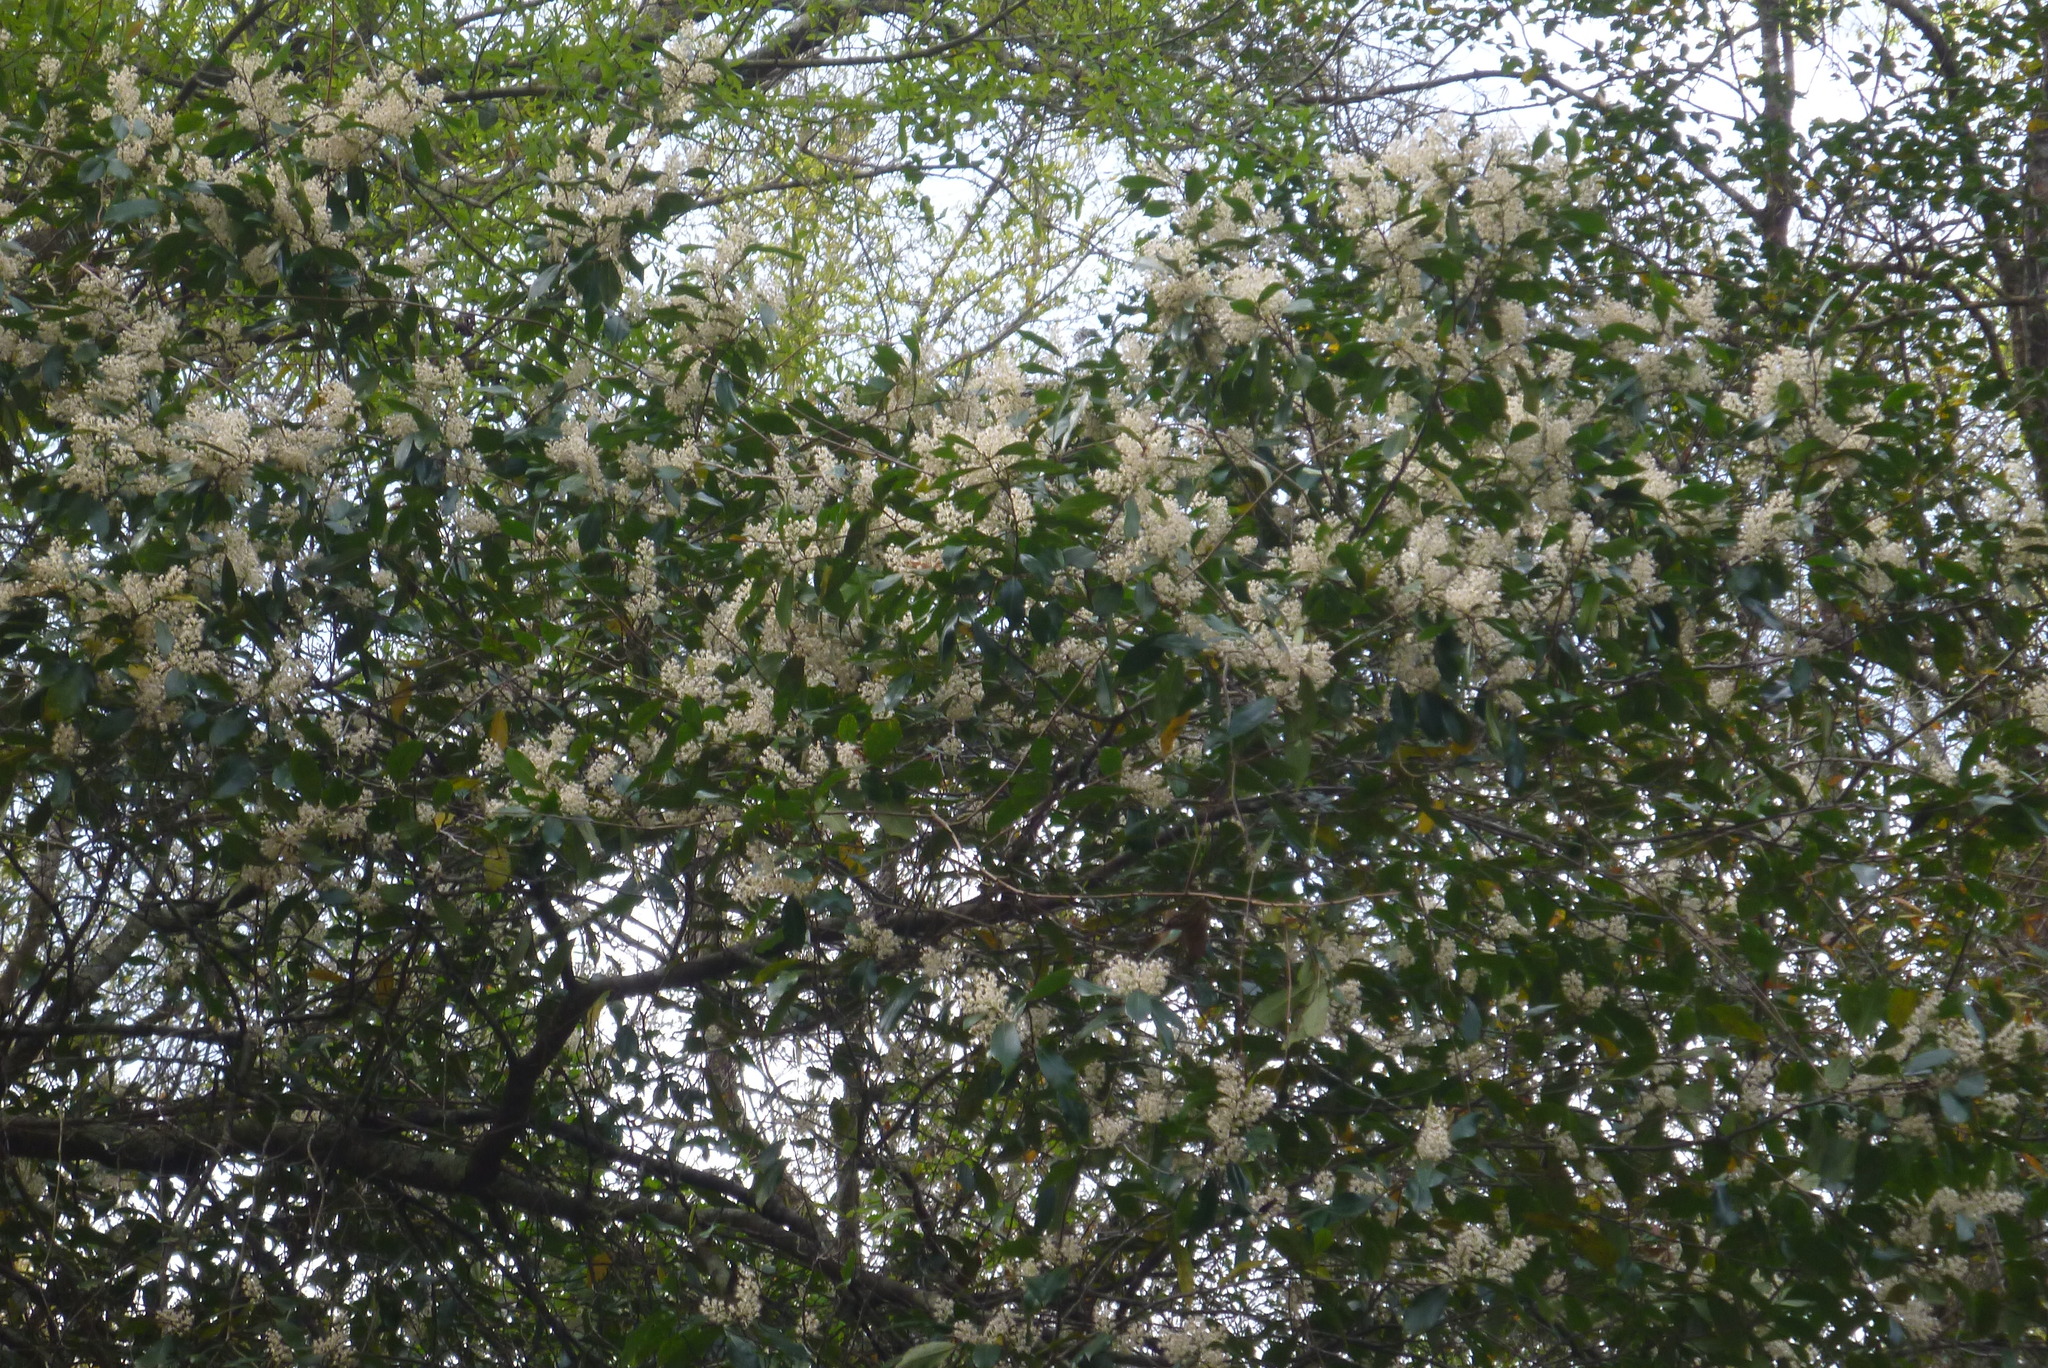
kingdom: Plantae
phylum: Tracheophyta
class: Magnoliopsida
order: Ericales
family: Cyrillaceae
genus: Cliftonia
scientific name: Cliftonia monophylla
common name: Titi
